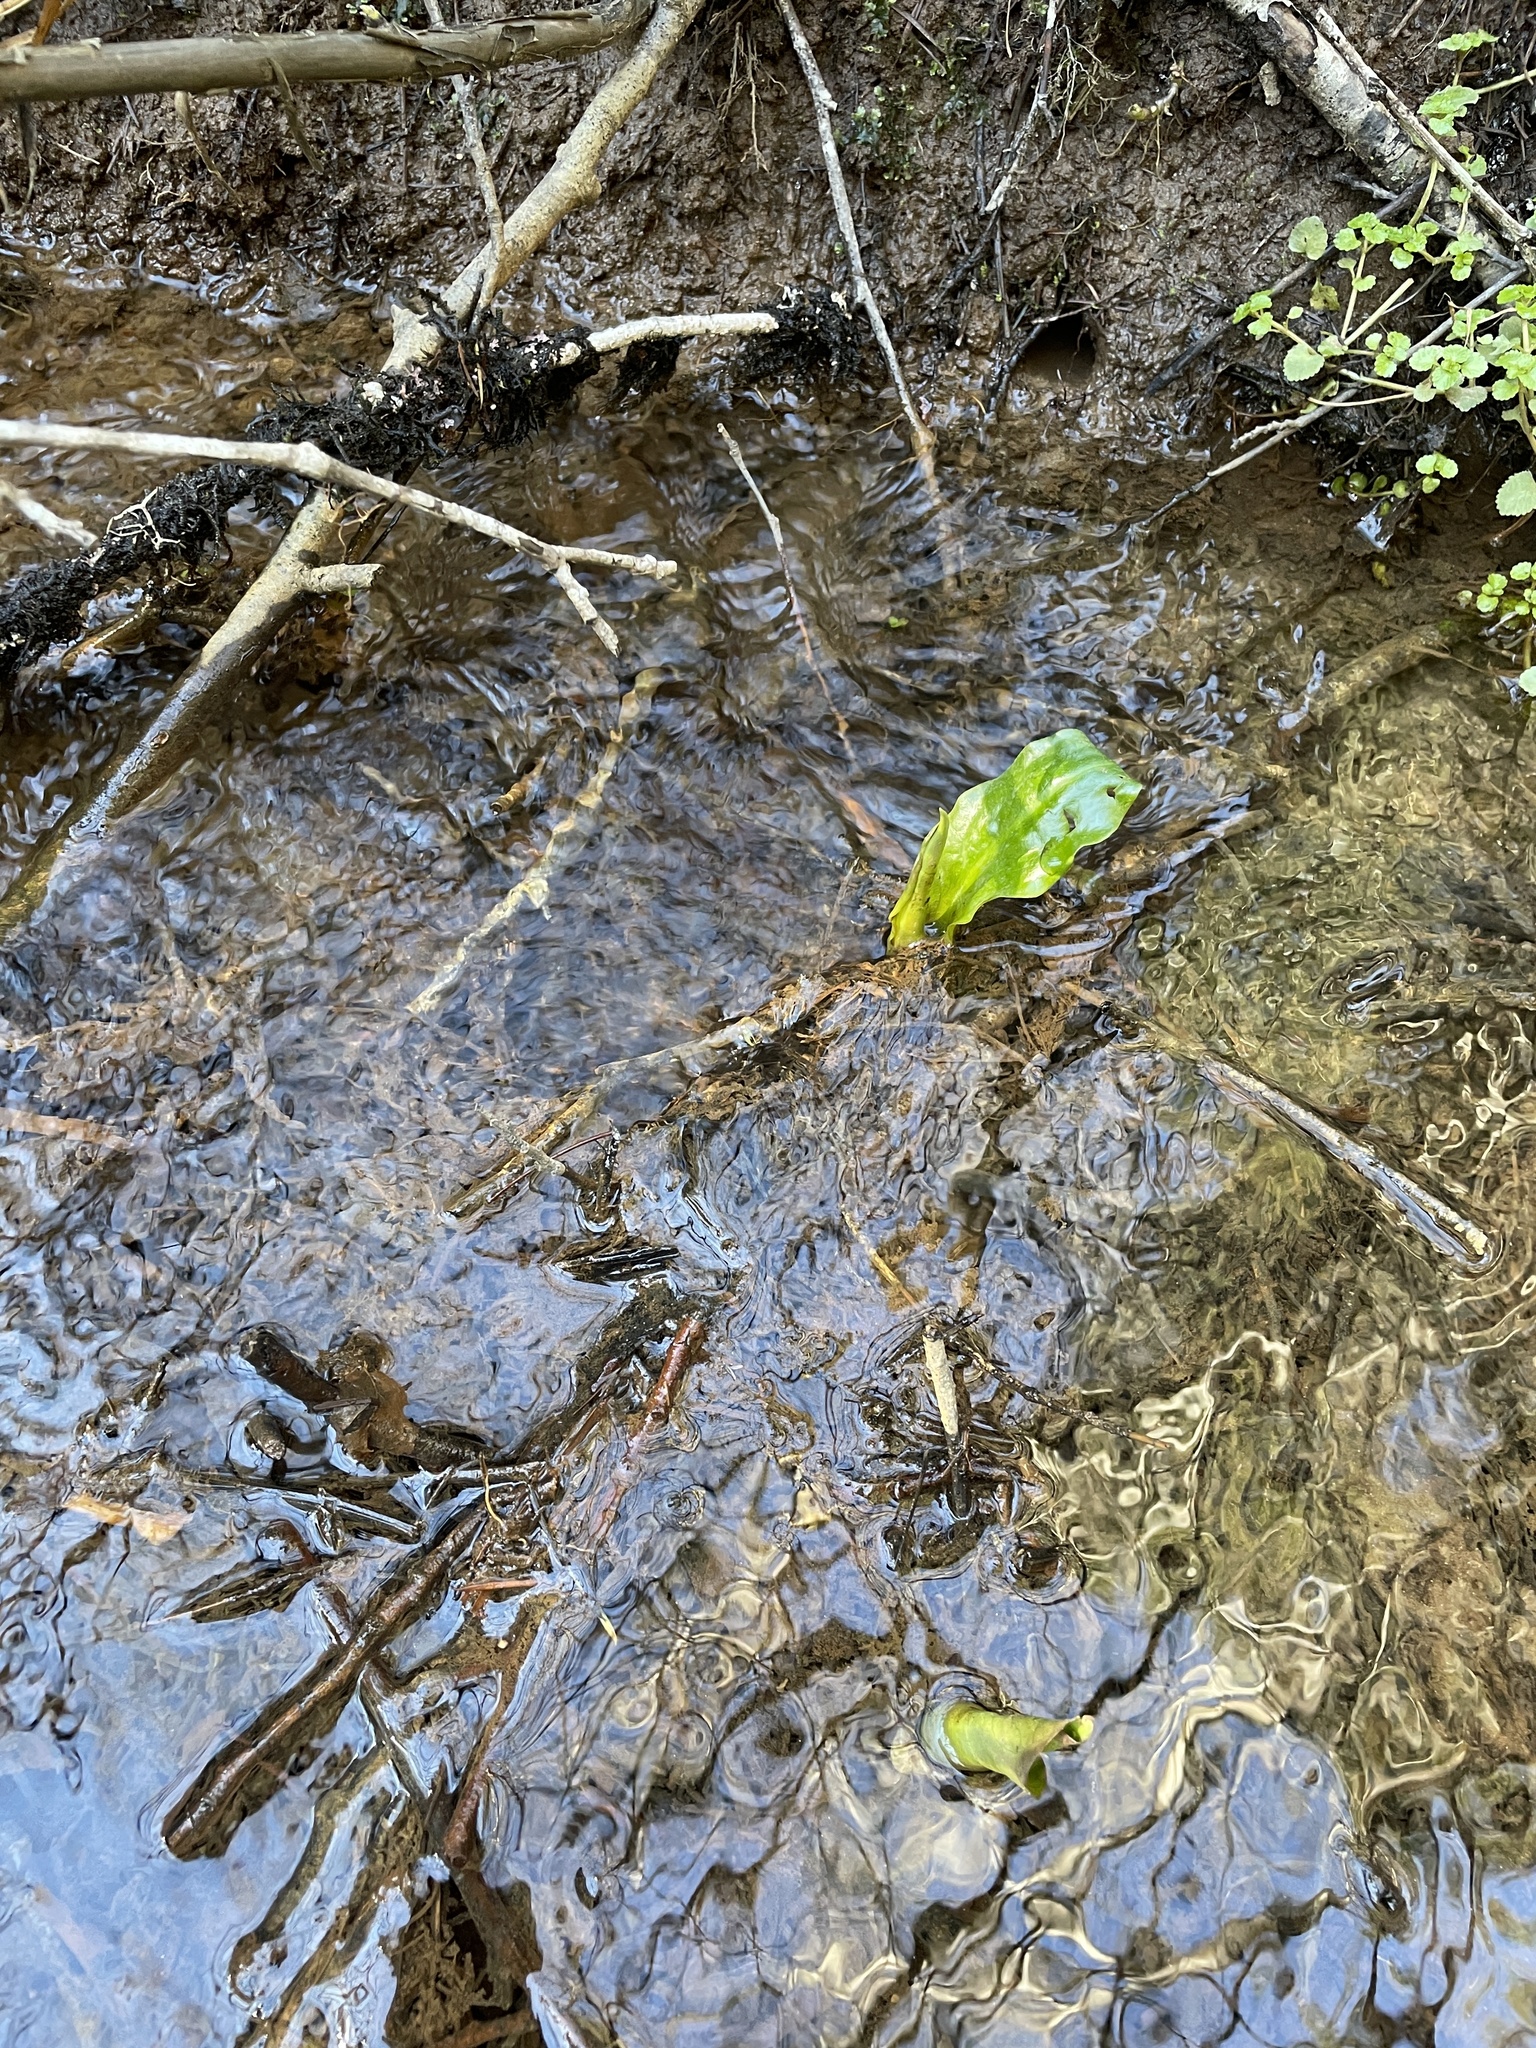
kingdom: Plantae
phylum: Tracheophyta
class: Liliopsida
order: Alismatales
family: Araceae
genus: Lysichiton
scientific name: Lysichiton americanus
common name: American skunk cabbage
